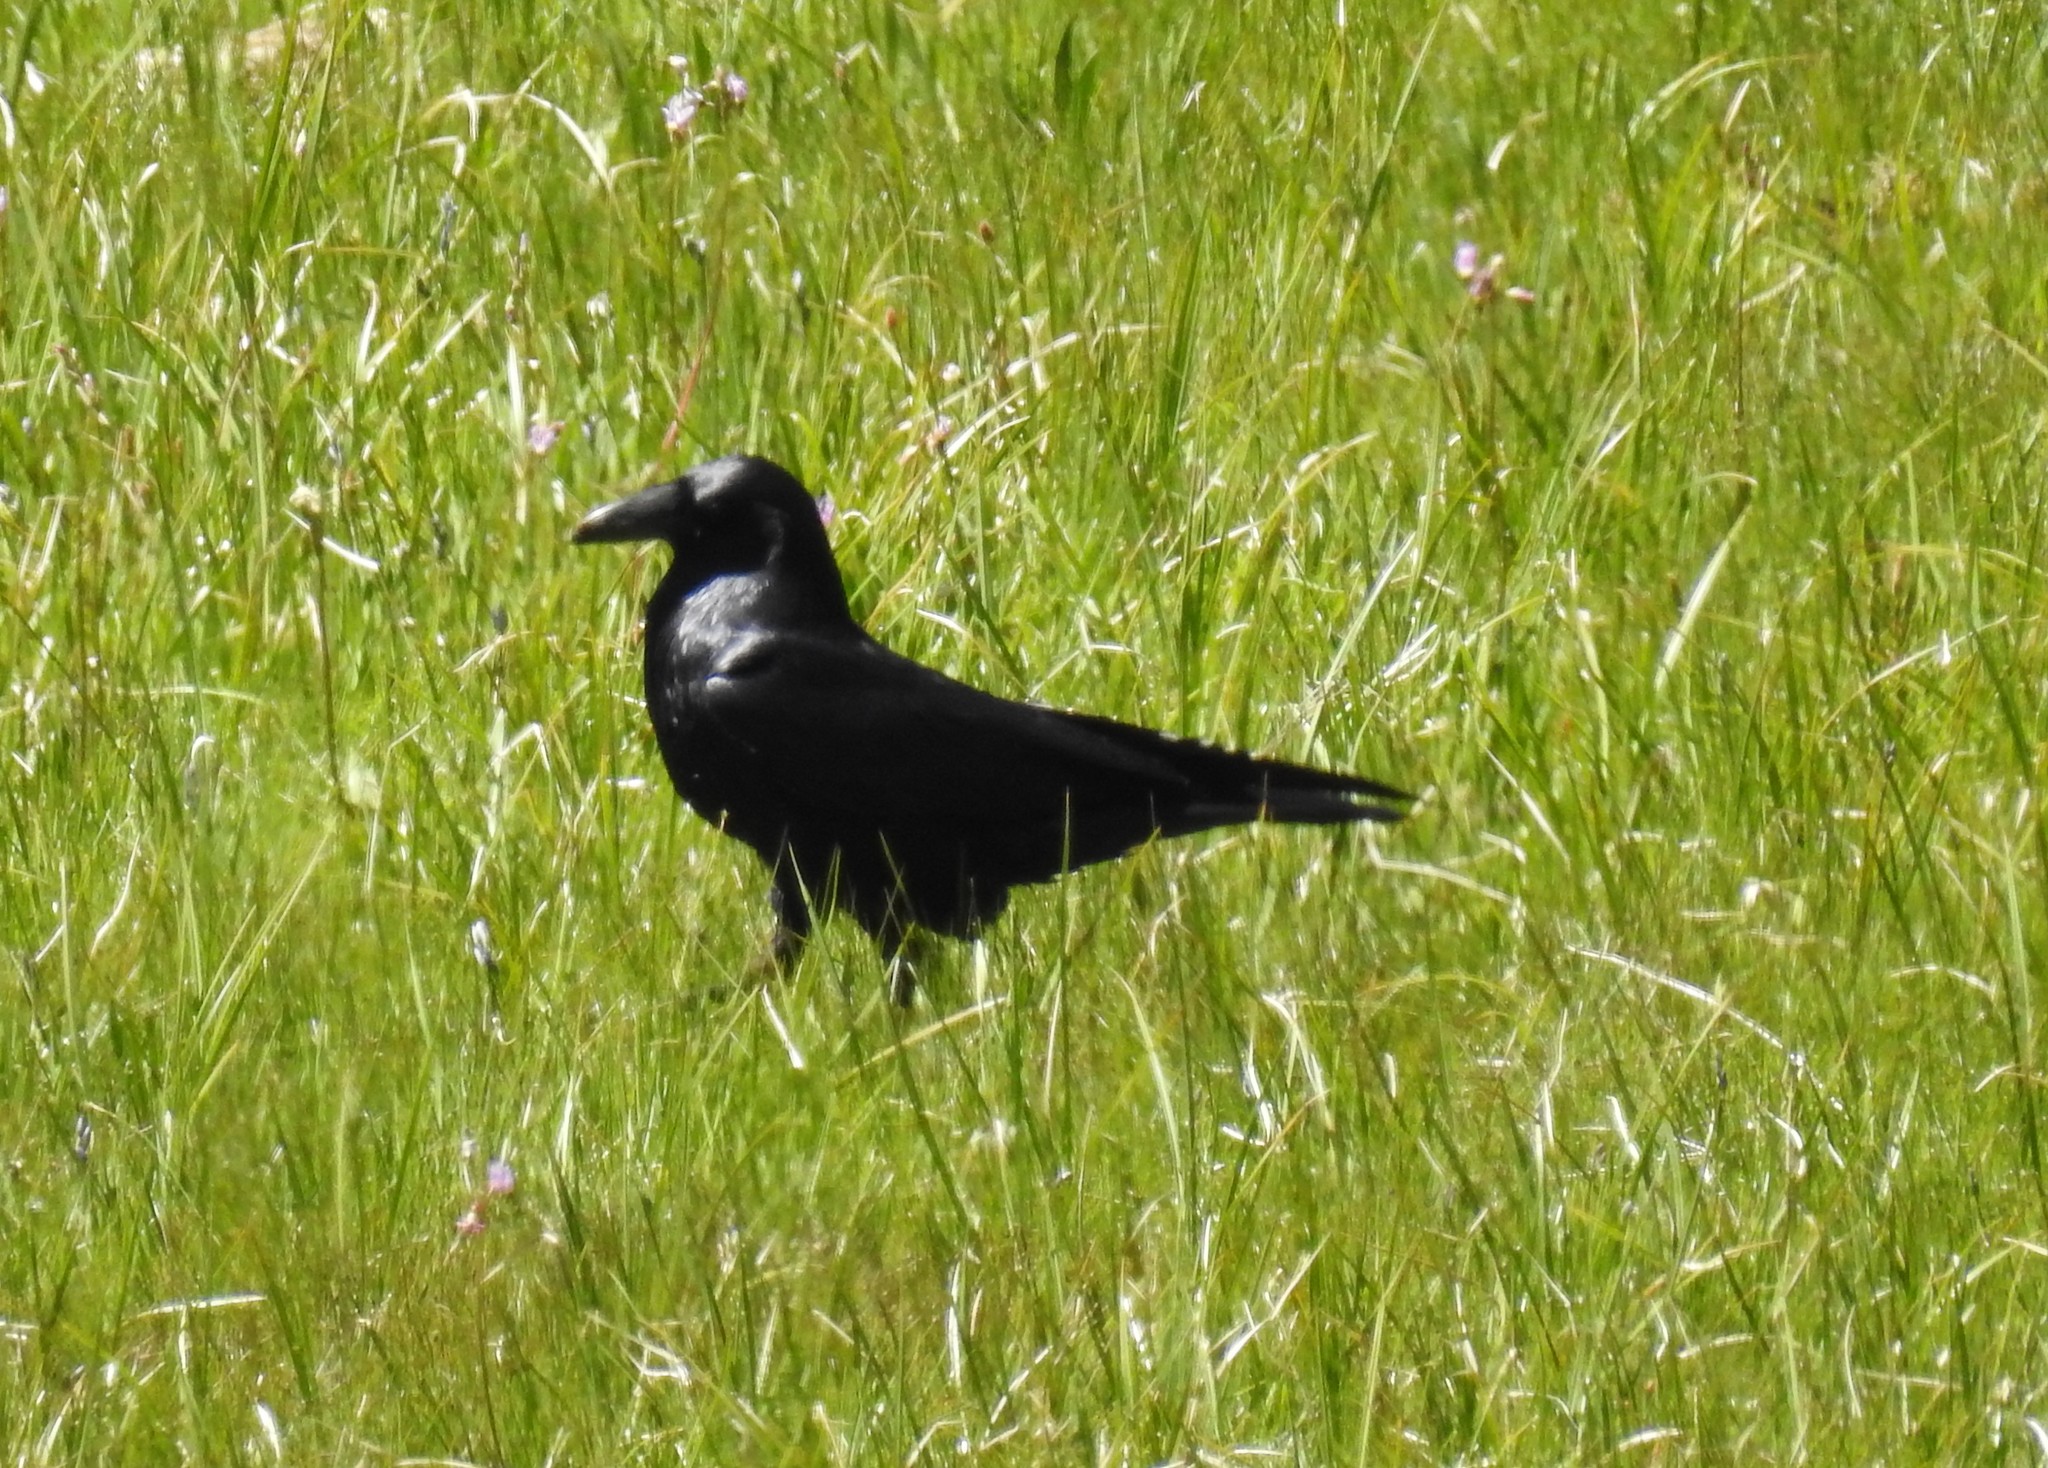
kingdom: Animalia
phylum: Chordata
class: Aves
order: Passeriformes
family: Corvidae
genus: Corvus
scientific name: Corvus corax
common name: Common raven
